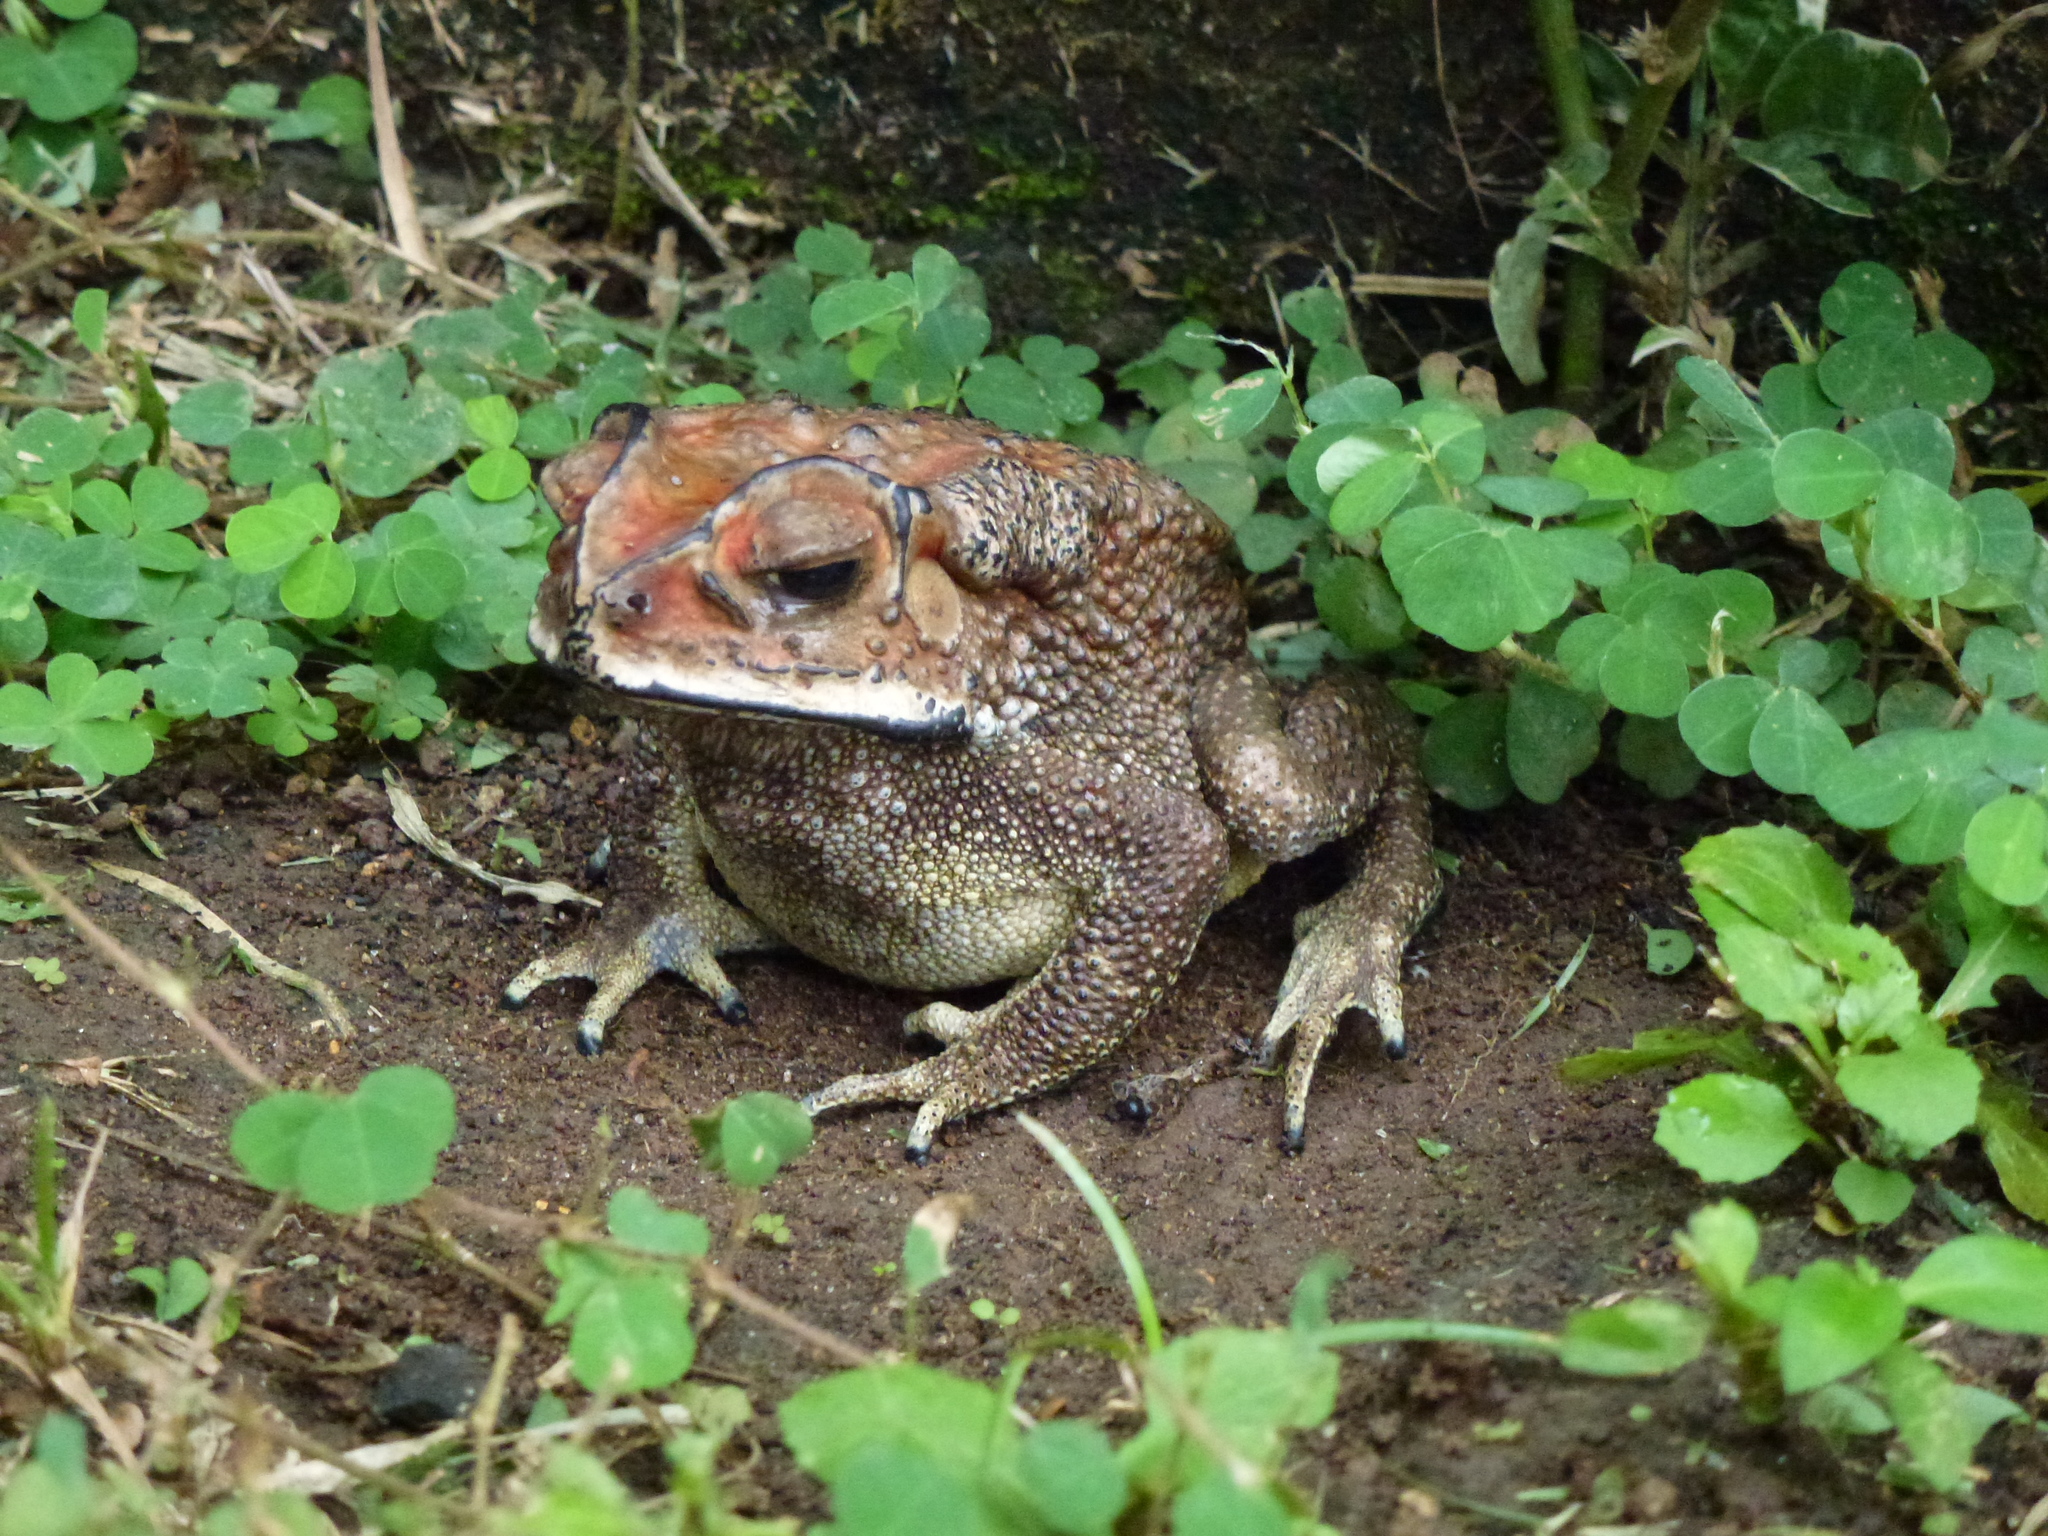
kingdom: Animalia
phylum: Chordata
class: Amphibia
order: Anura
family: Bufonidae
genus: Duttaphrynus
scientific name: Duttaphrynus melanostictus
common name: Common sunda toad
